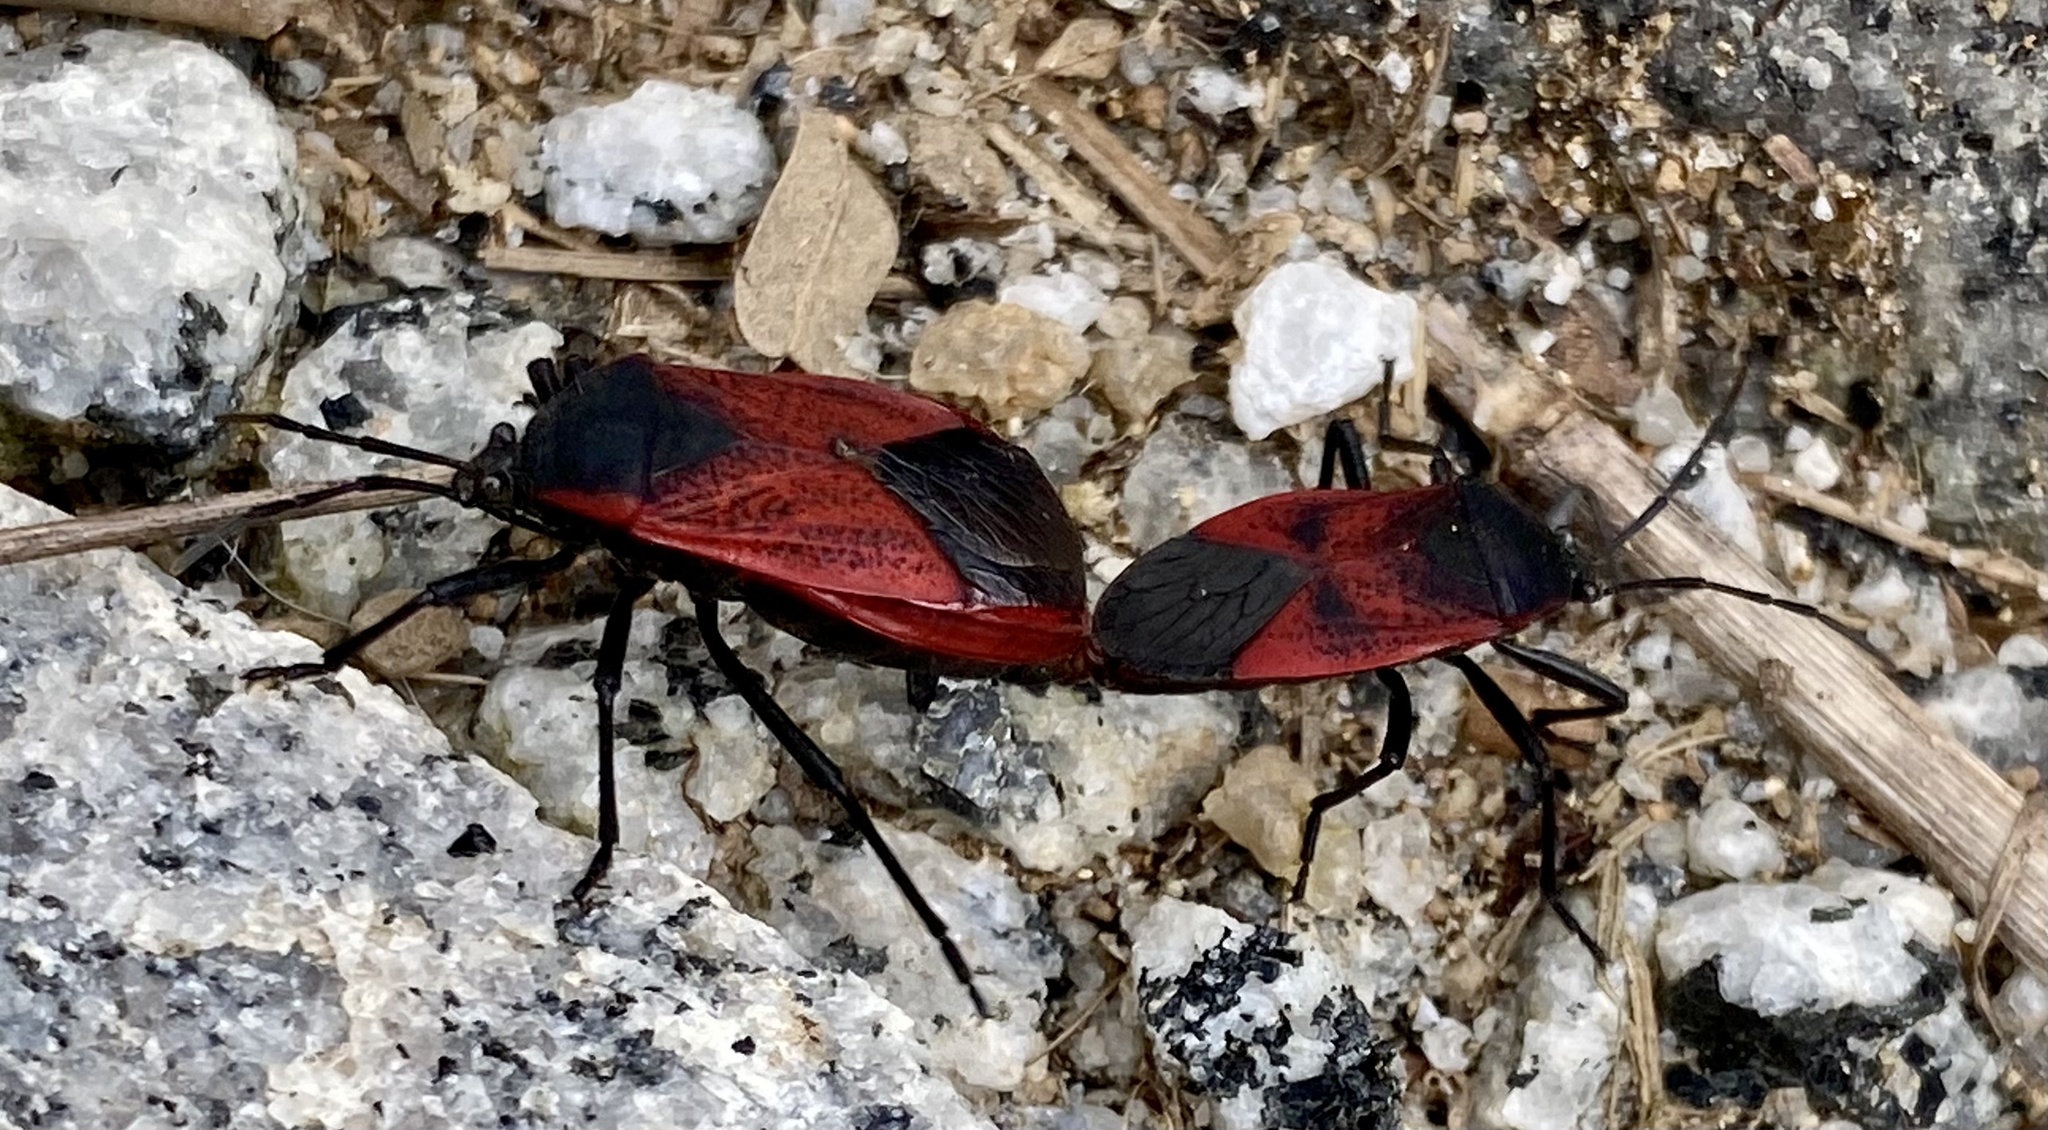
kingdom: Animalia
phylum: Arthropoda
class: Insecta
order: Hemiptera
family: Largidae
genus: Largus
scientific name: Largus rufipennis
